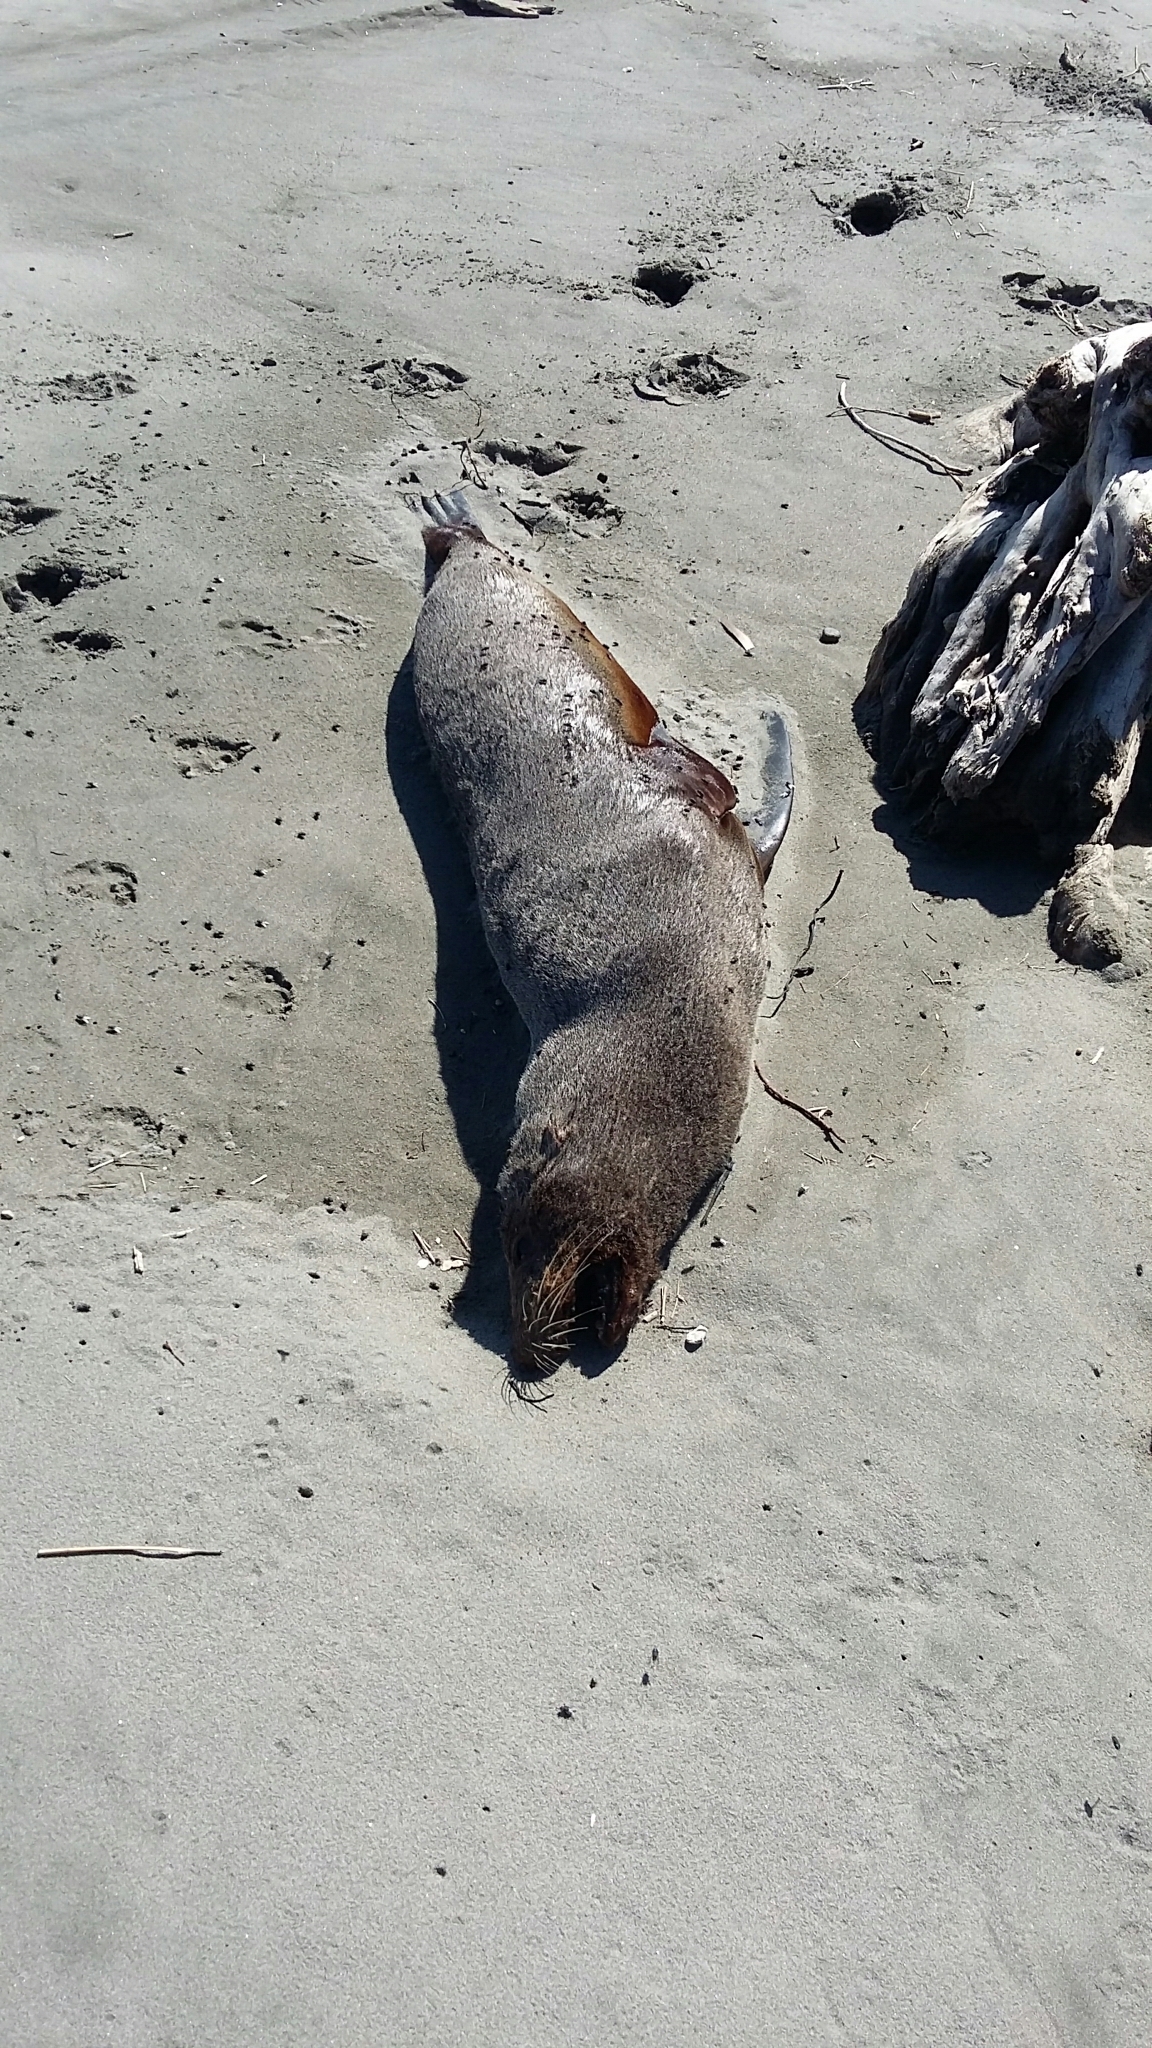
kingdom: Animalia
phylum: Chordata
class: Mammalia
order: Carnivora
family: Otariidae
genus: Arctocephalus
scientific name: Arctocephalus forsteri
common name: New zealand fur seal
